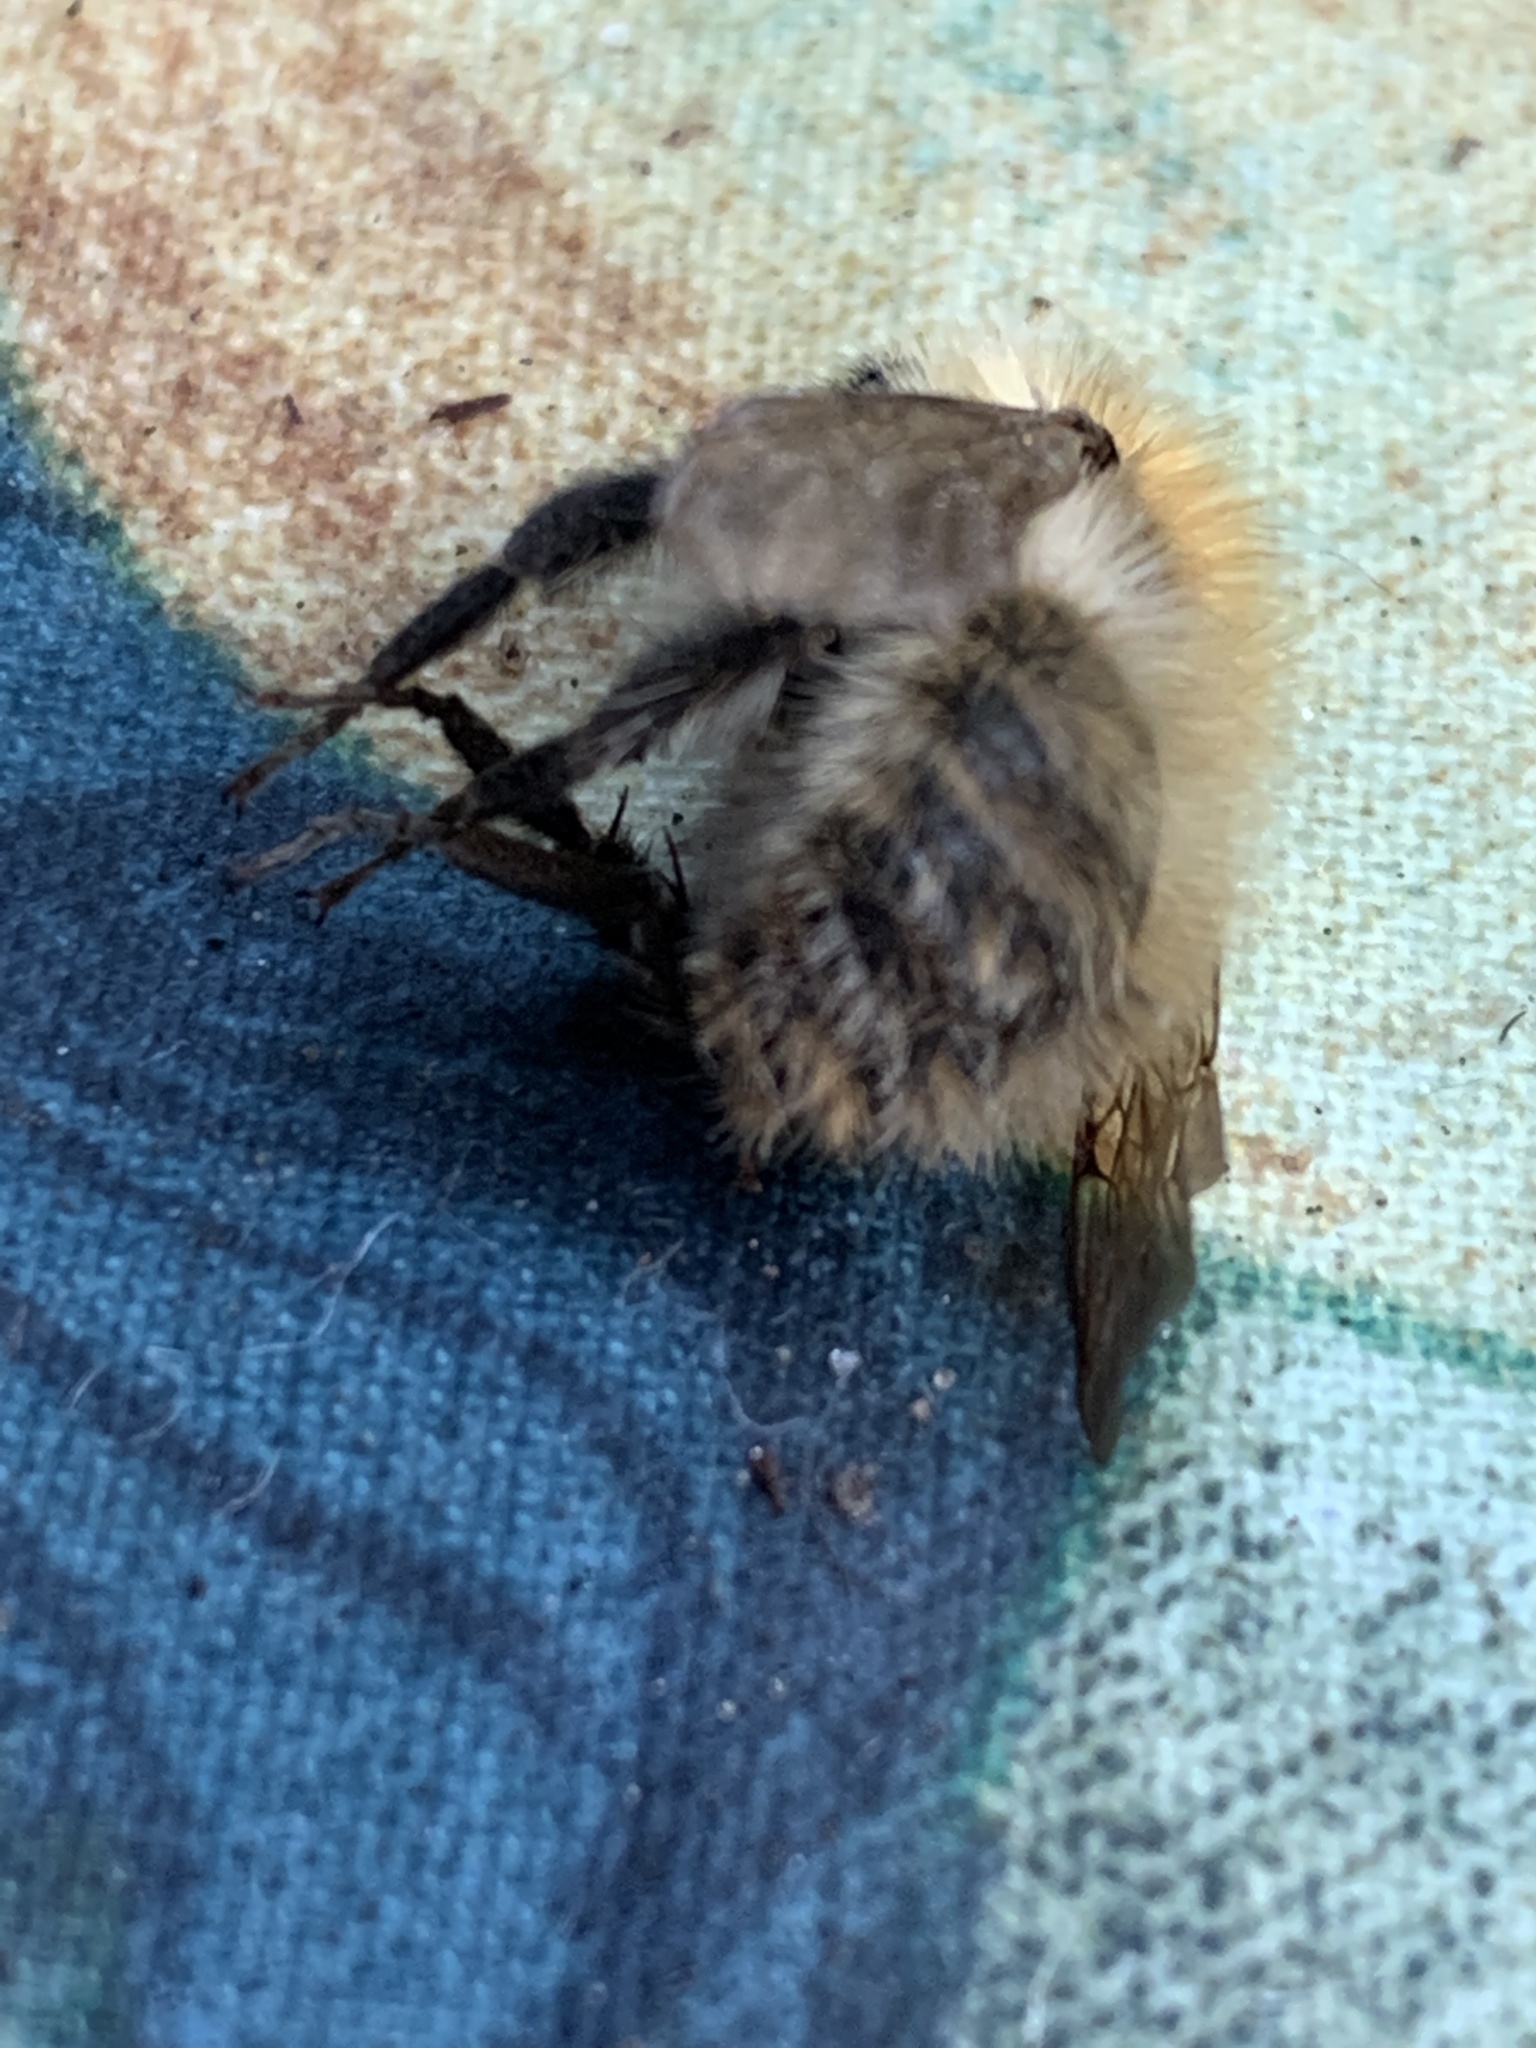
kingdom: Animalia
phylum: Arthropoda
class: Insecta
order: Hymenoptera
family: Apidae
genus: Bombus
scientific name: Bombus pascuorum
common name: Common carder bee
